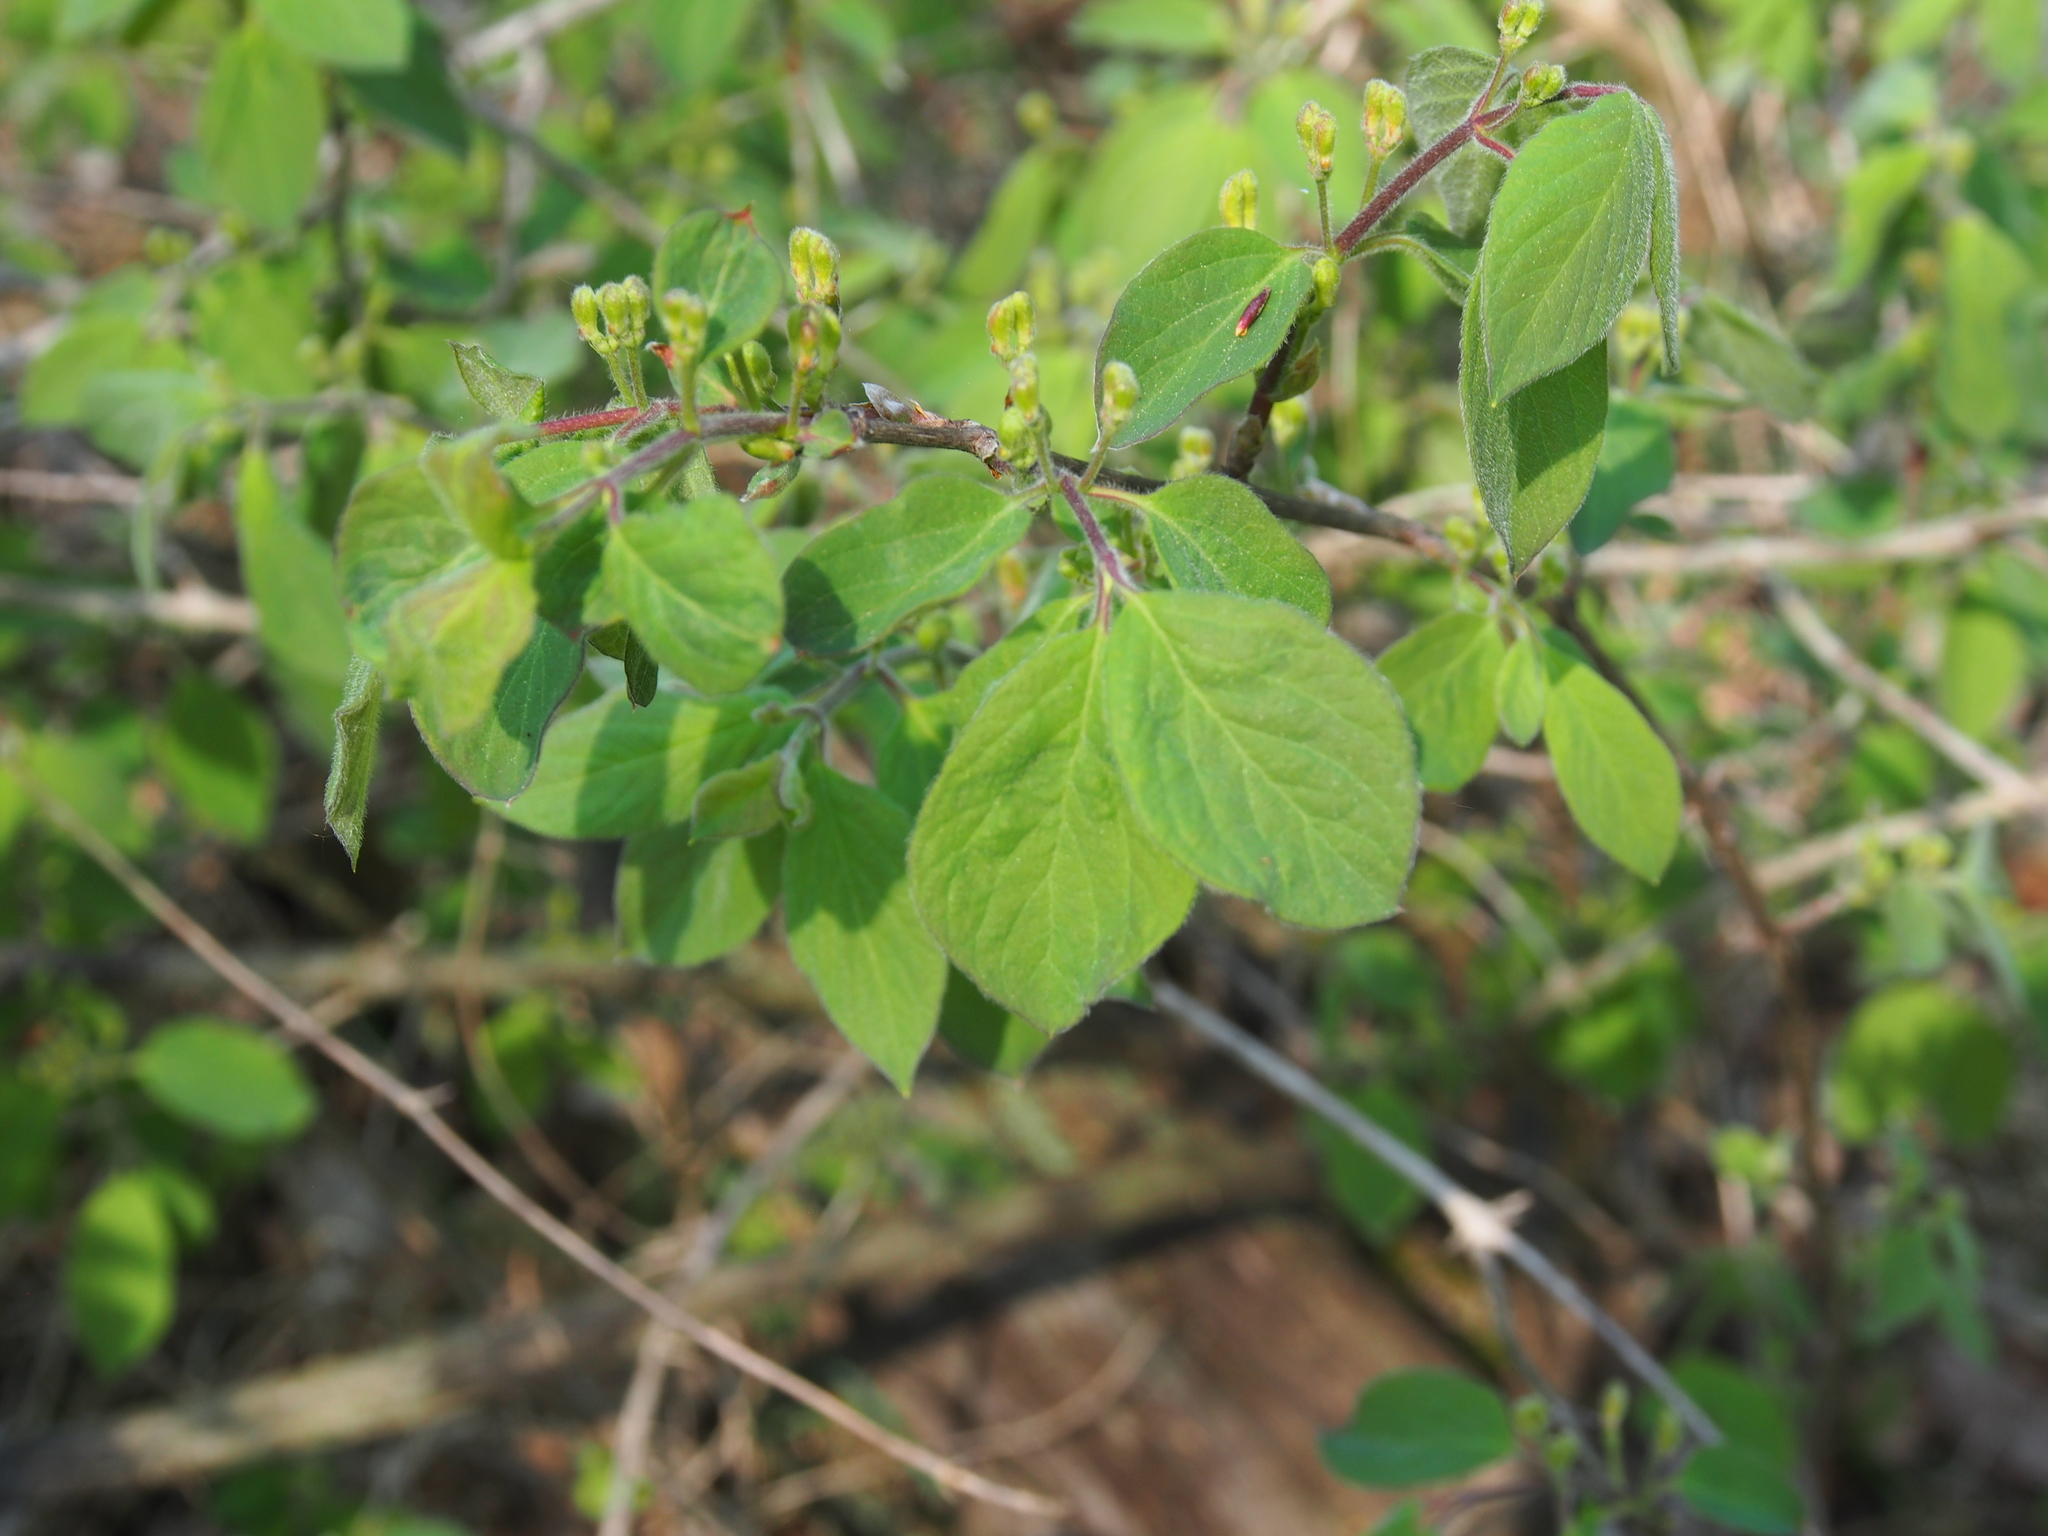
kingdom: Plantae
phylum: Tracheophyta
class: Magnoliopsida
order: Dipsacales
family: Caprifoliaceae
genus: Lonicera
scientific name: Lonicera xylosteum
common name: Fly honeysuckle
